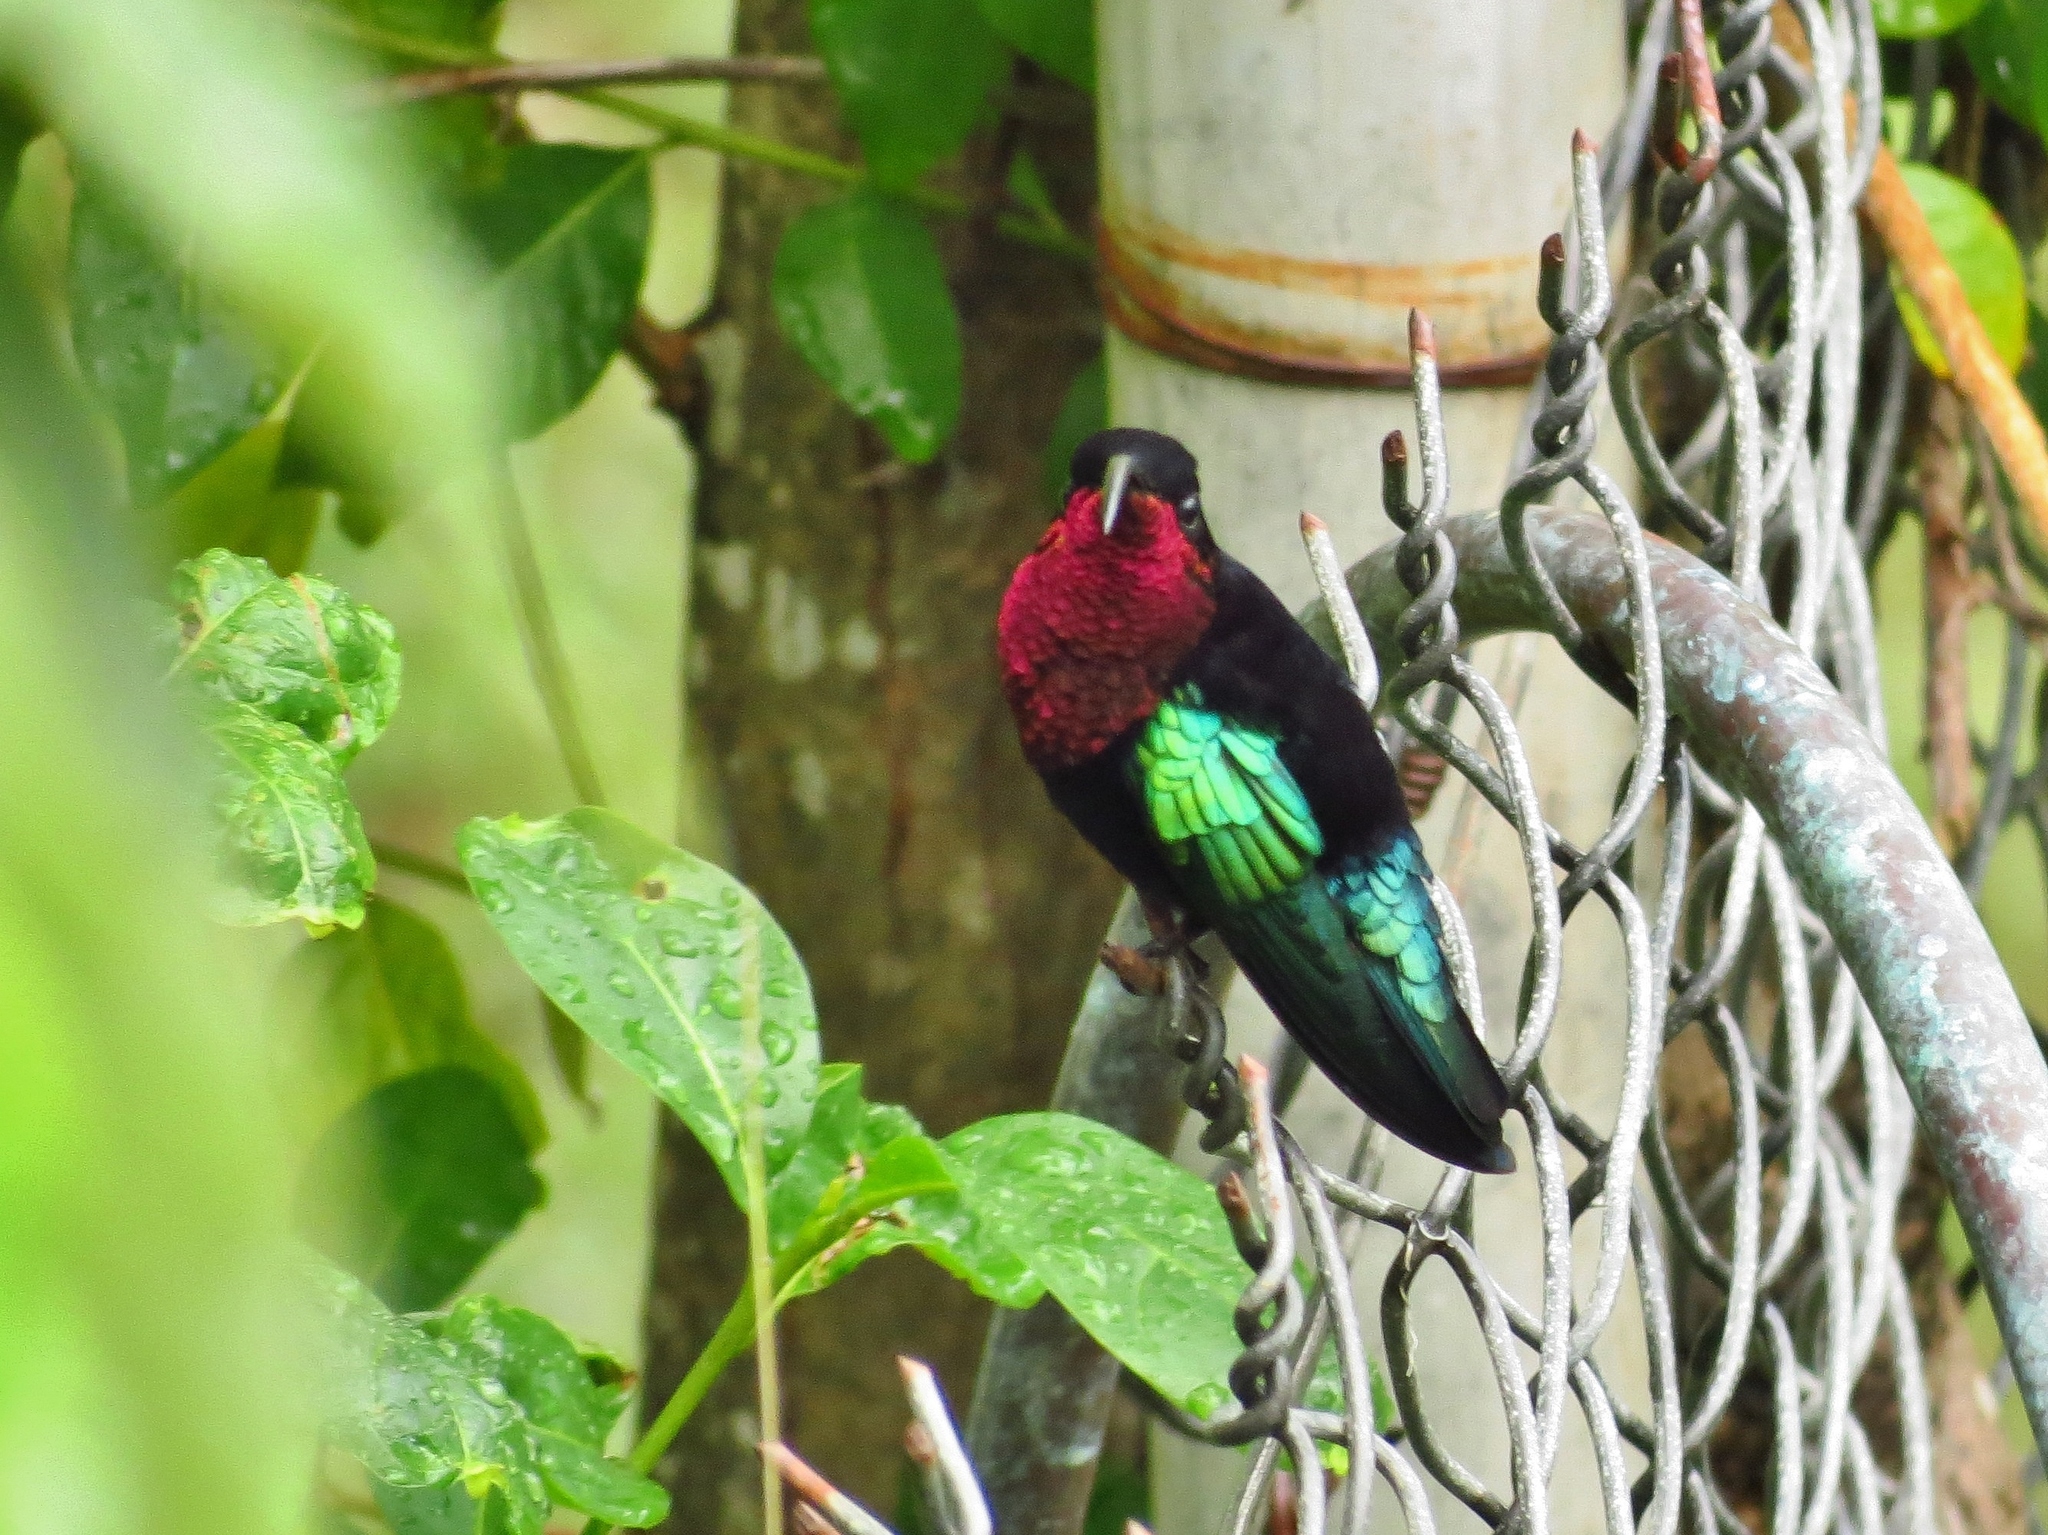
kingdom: Animalia
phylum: Chordata
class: Aves
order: Apodiformes
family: Trochilidae
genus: Eulampis
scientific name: Eulampis jugularis
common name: Purple-throated carib
